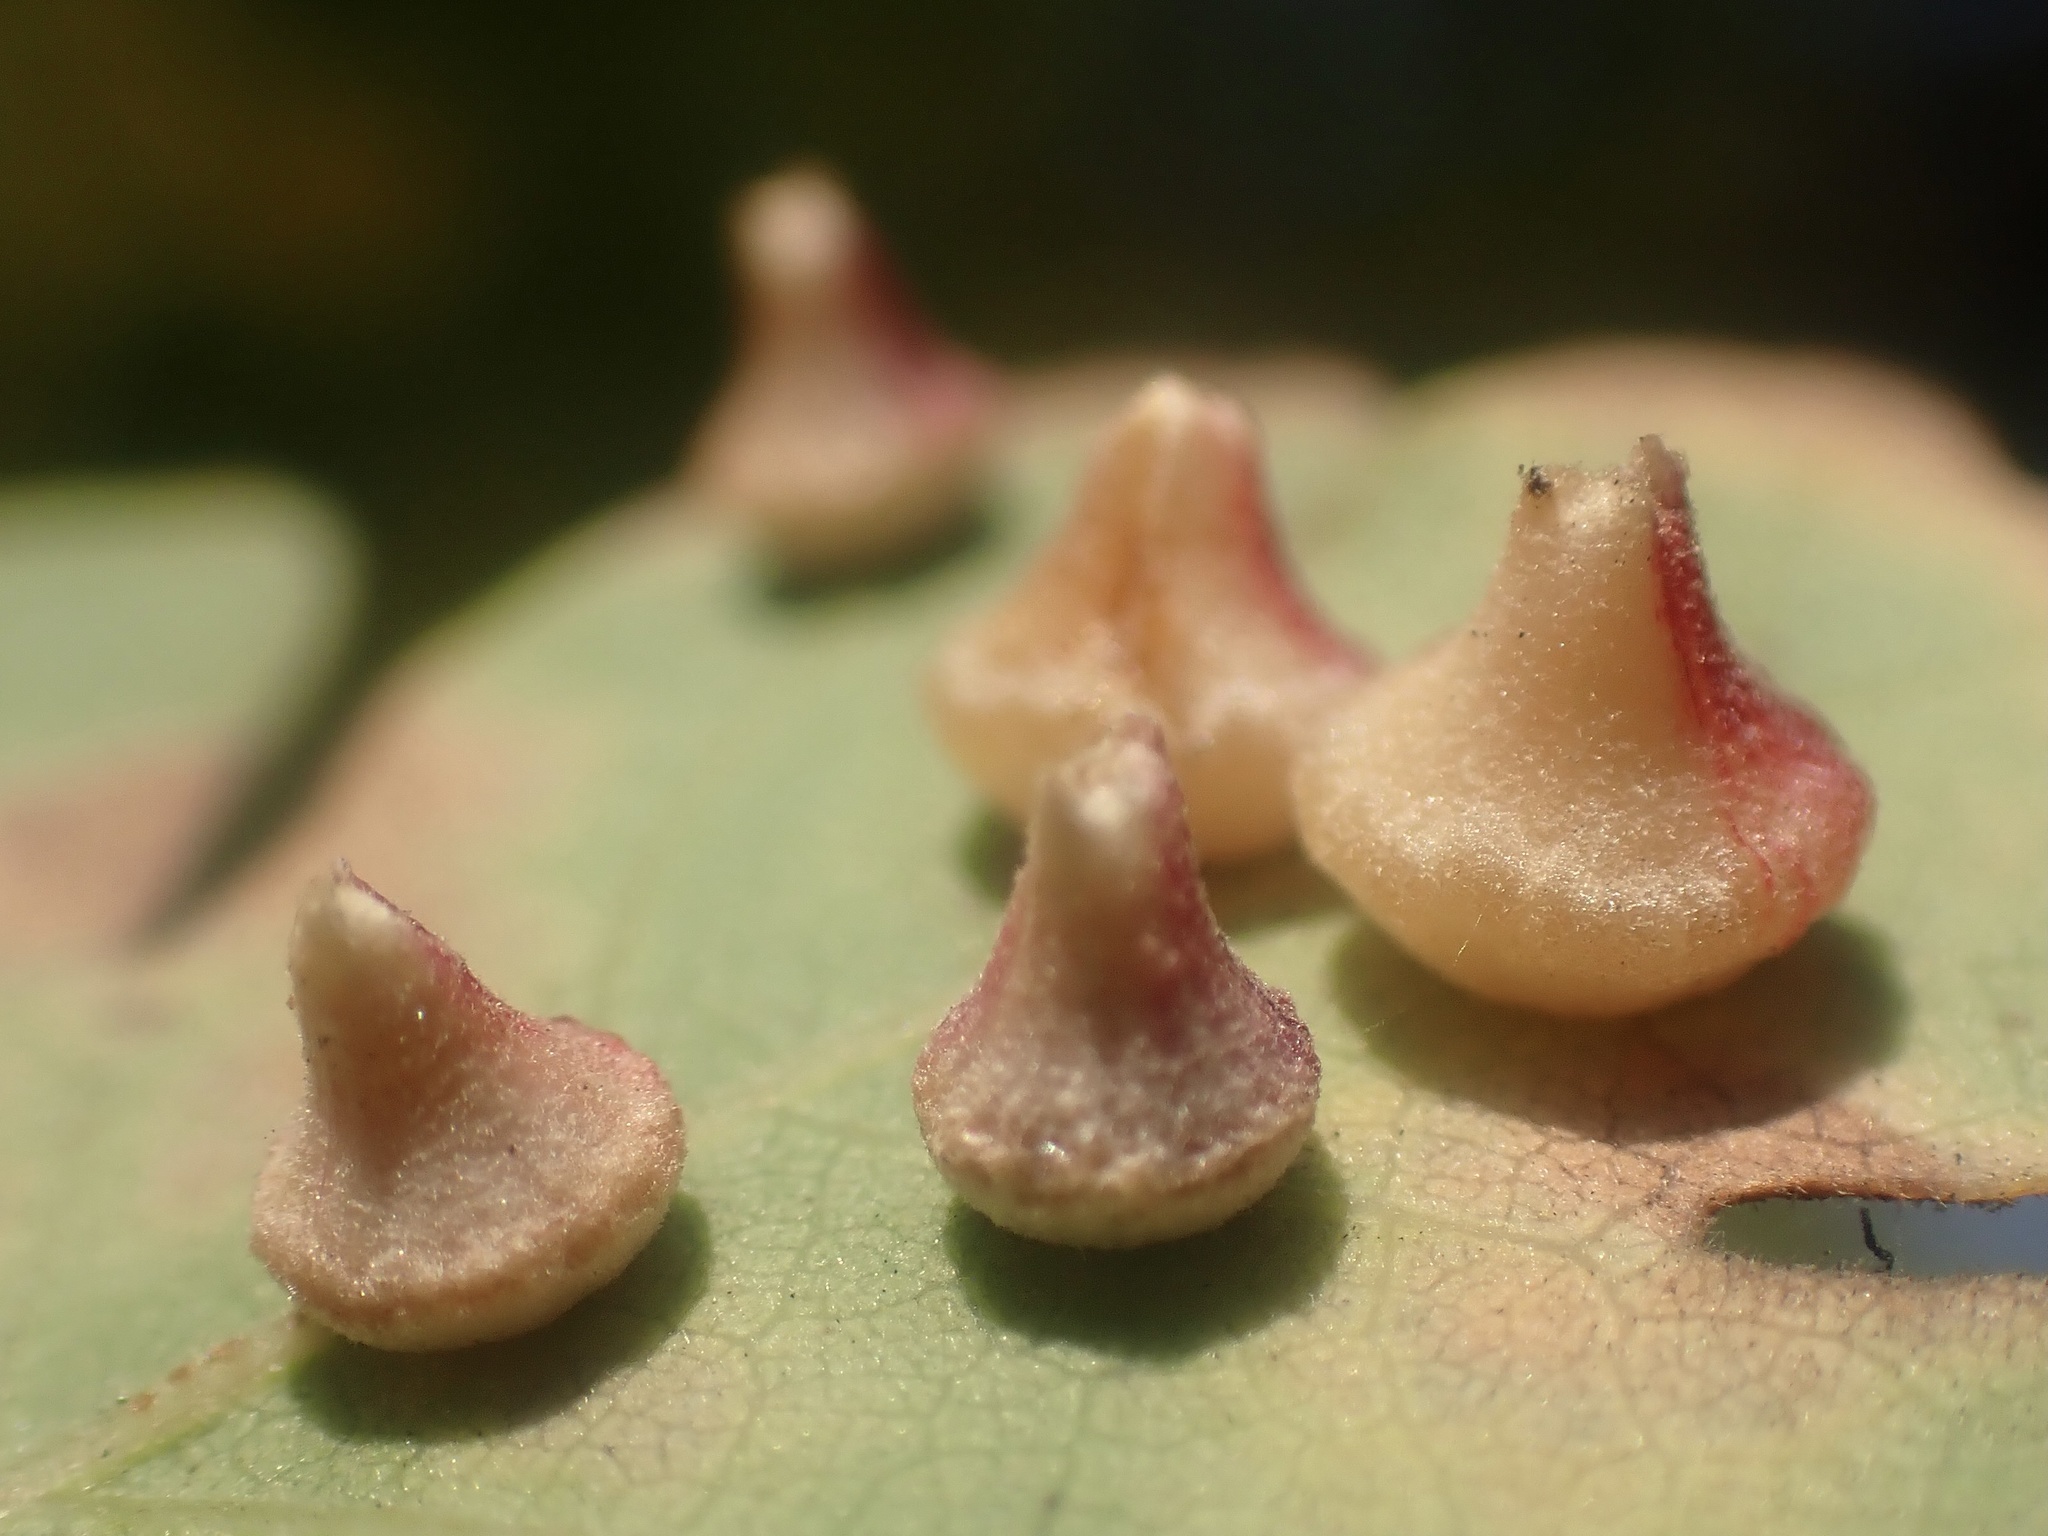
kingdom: Animalia
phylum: Arthropoda
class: Insecta
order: Hymenoptera
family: Cynipidae
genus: Andricus
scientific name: Andricus
